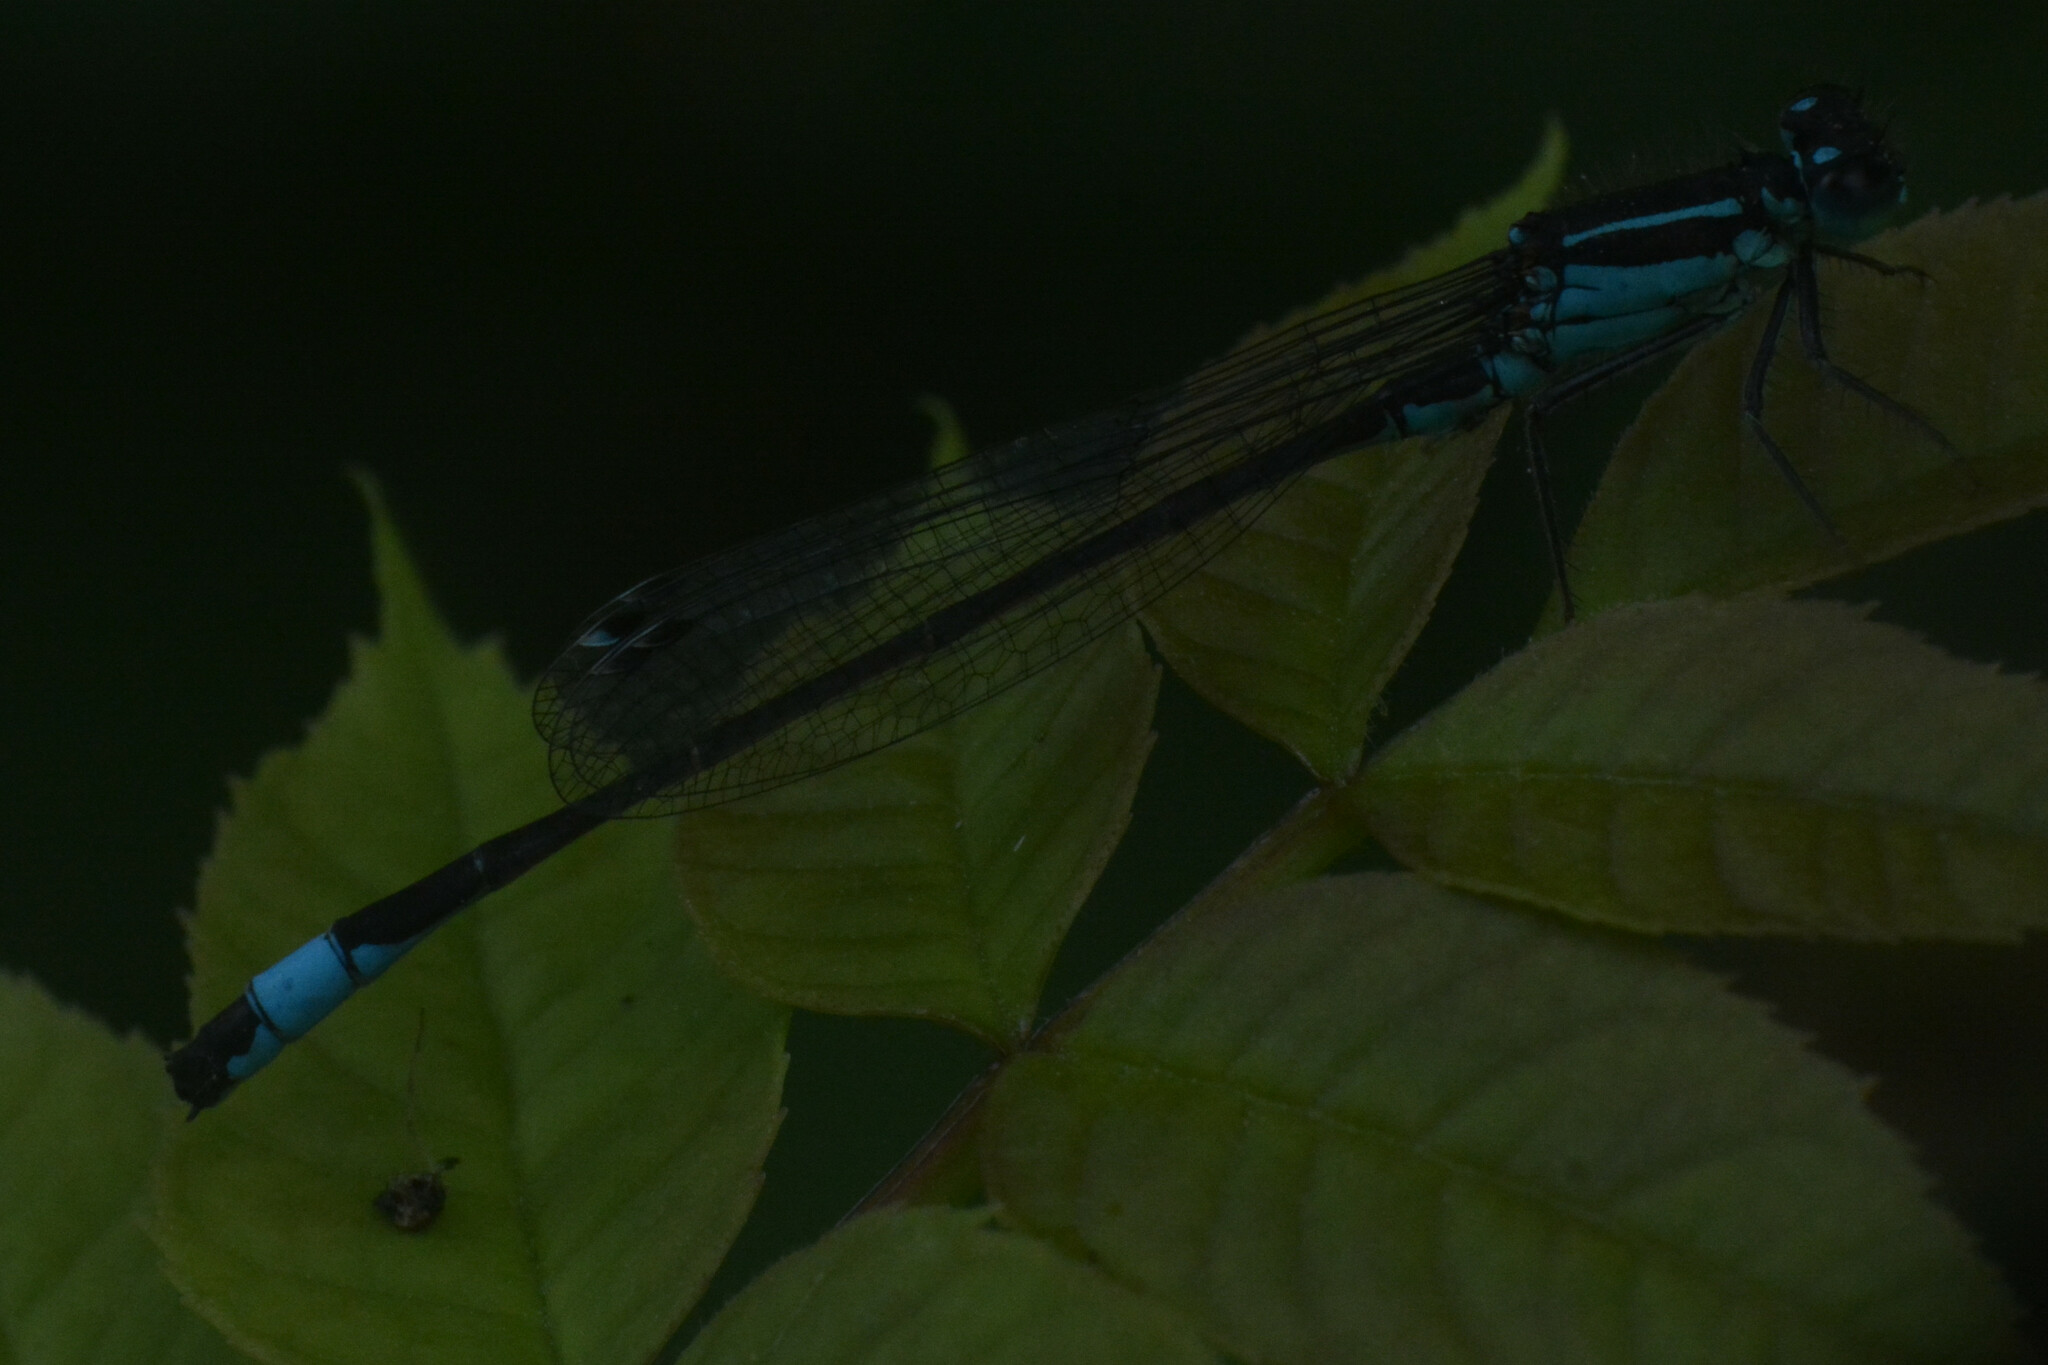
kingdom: Animalia
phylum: Arthropoda
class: Insecta
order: Odonata
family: Coenagrionidae
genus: Ischnura
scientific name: Ischnura elegans
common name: Blue-tailed damselfly
